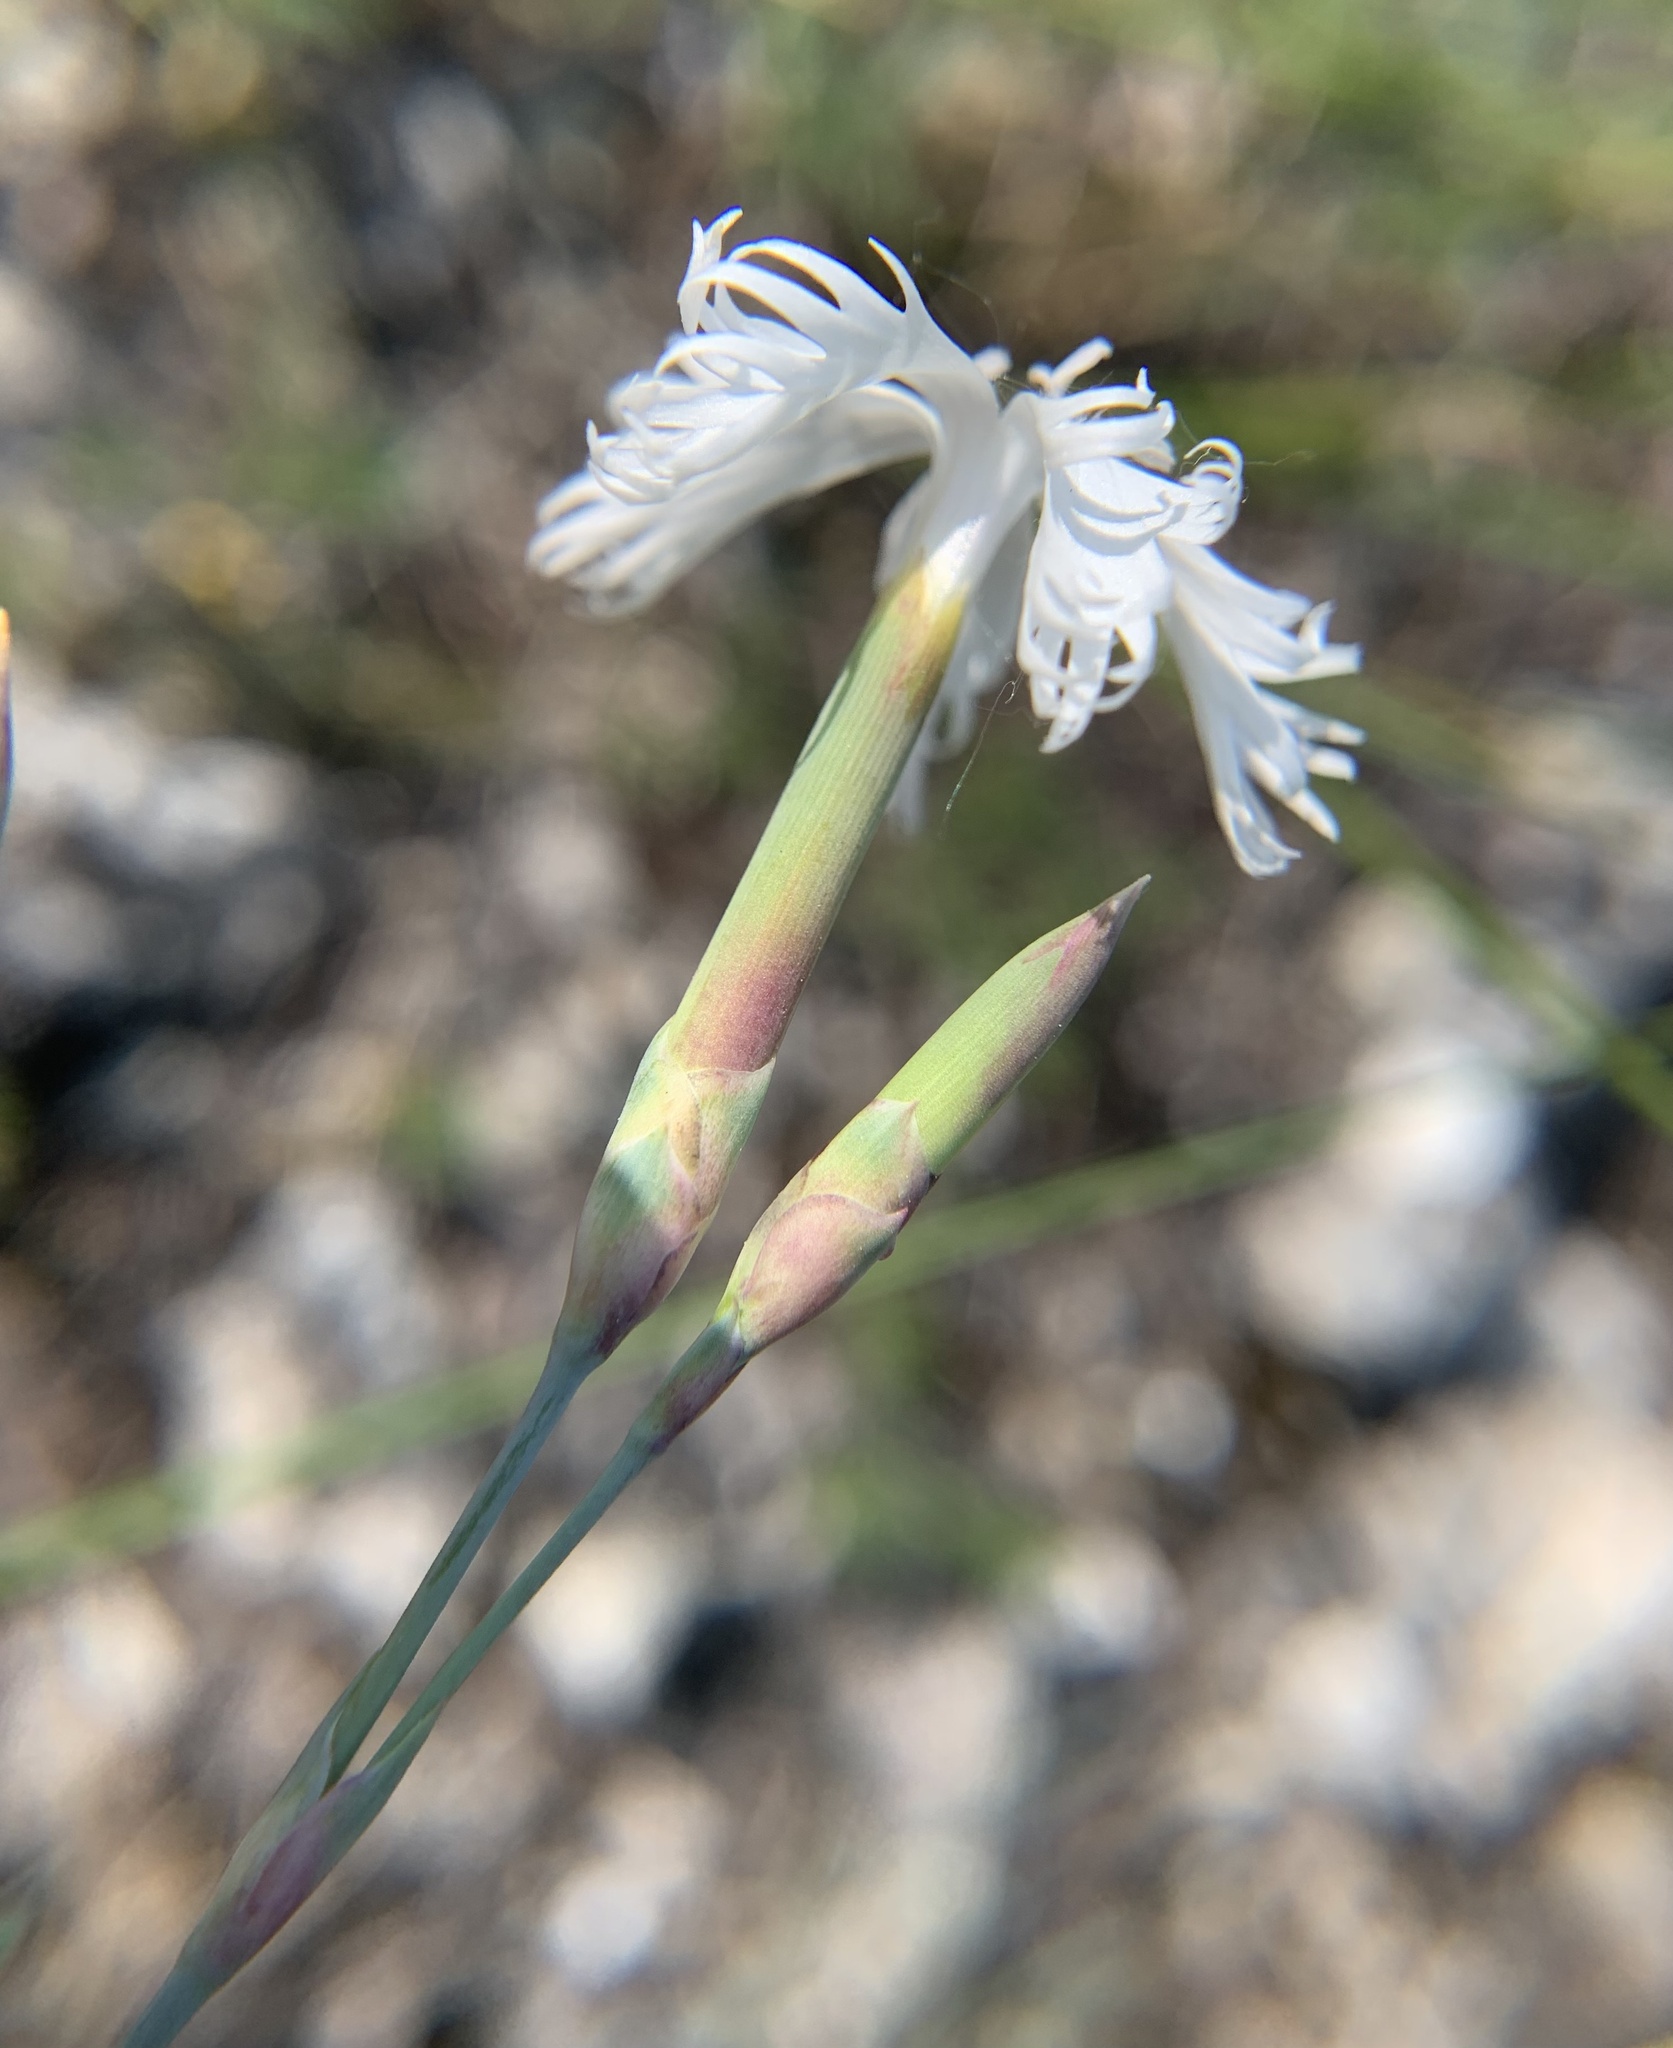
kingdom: Plantae
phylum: Tracheophyta
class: Magnoliopsida
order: Caryophyllales
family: Caryophyllaceae
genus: Dianthus
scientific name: Dianthus praecox
